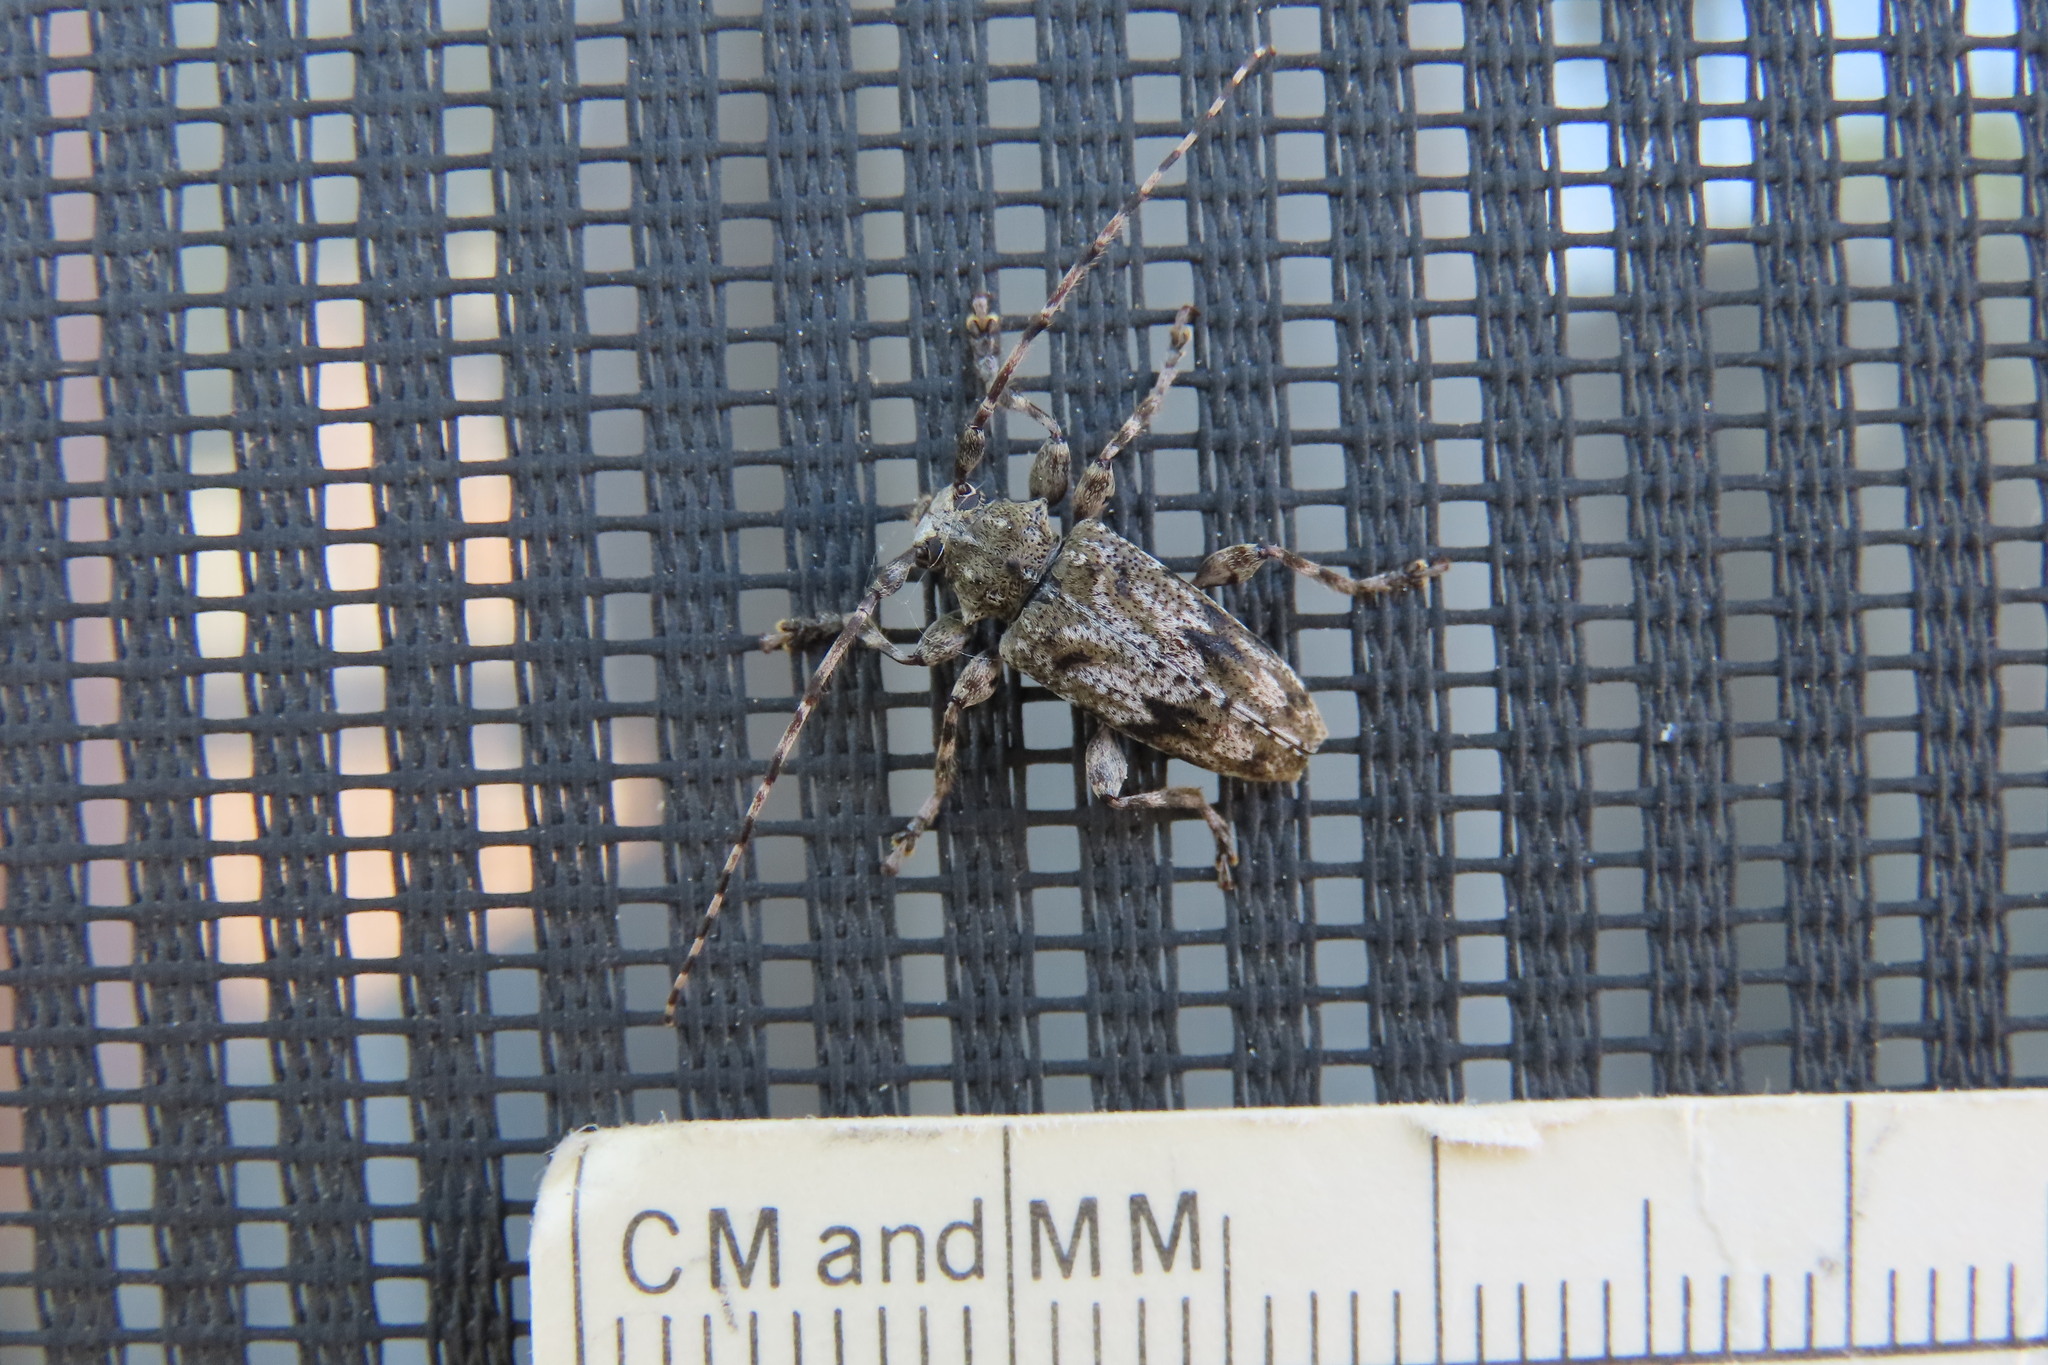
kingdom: Animalia
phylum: Arthropoda
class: Insecta
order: Coleoptera
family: Cerambycidae
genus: Aegomorphus
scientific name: Aegomorphus modestus
